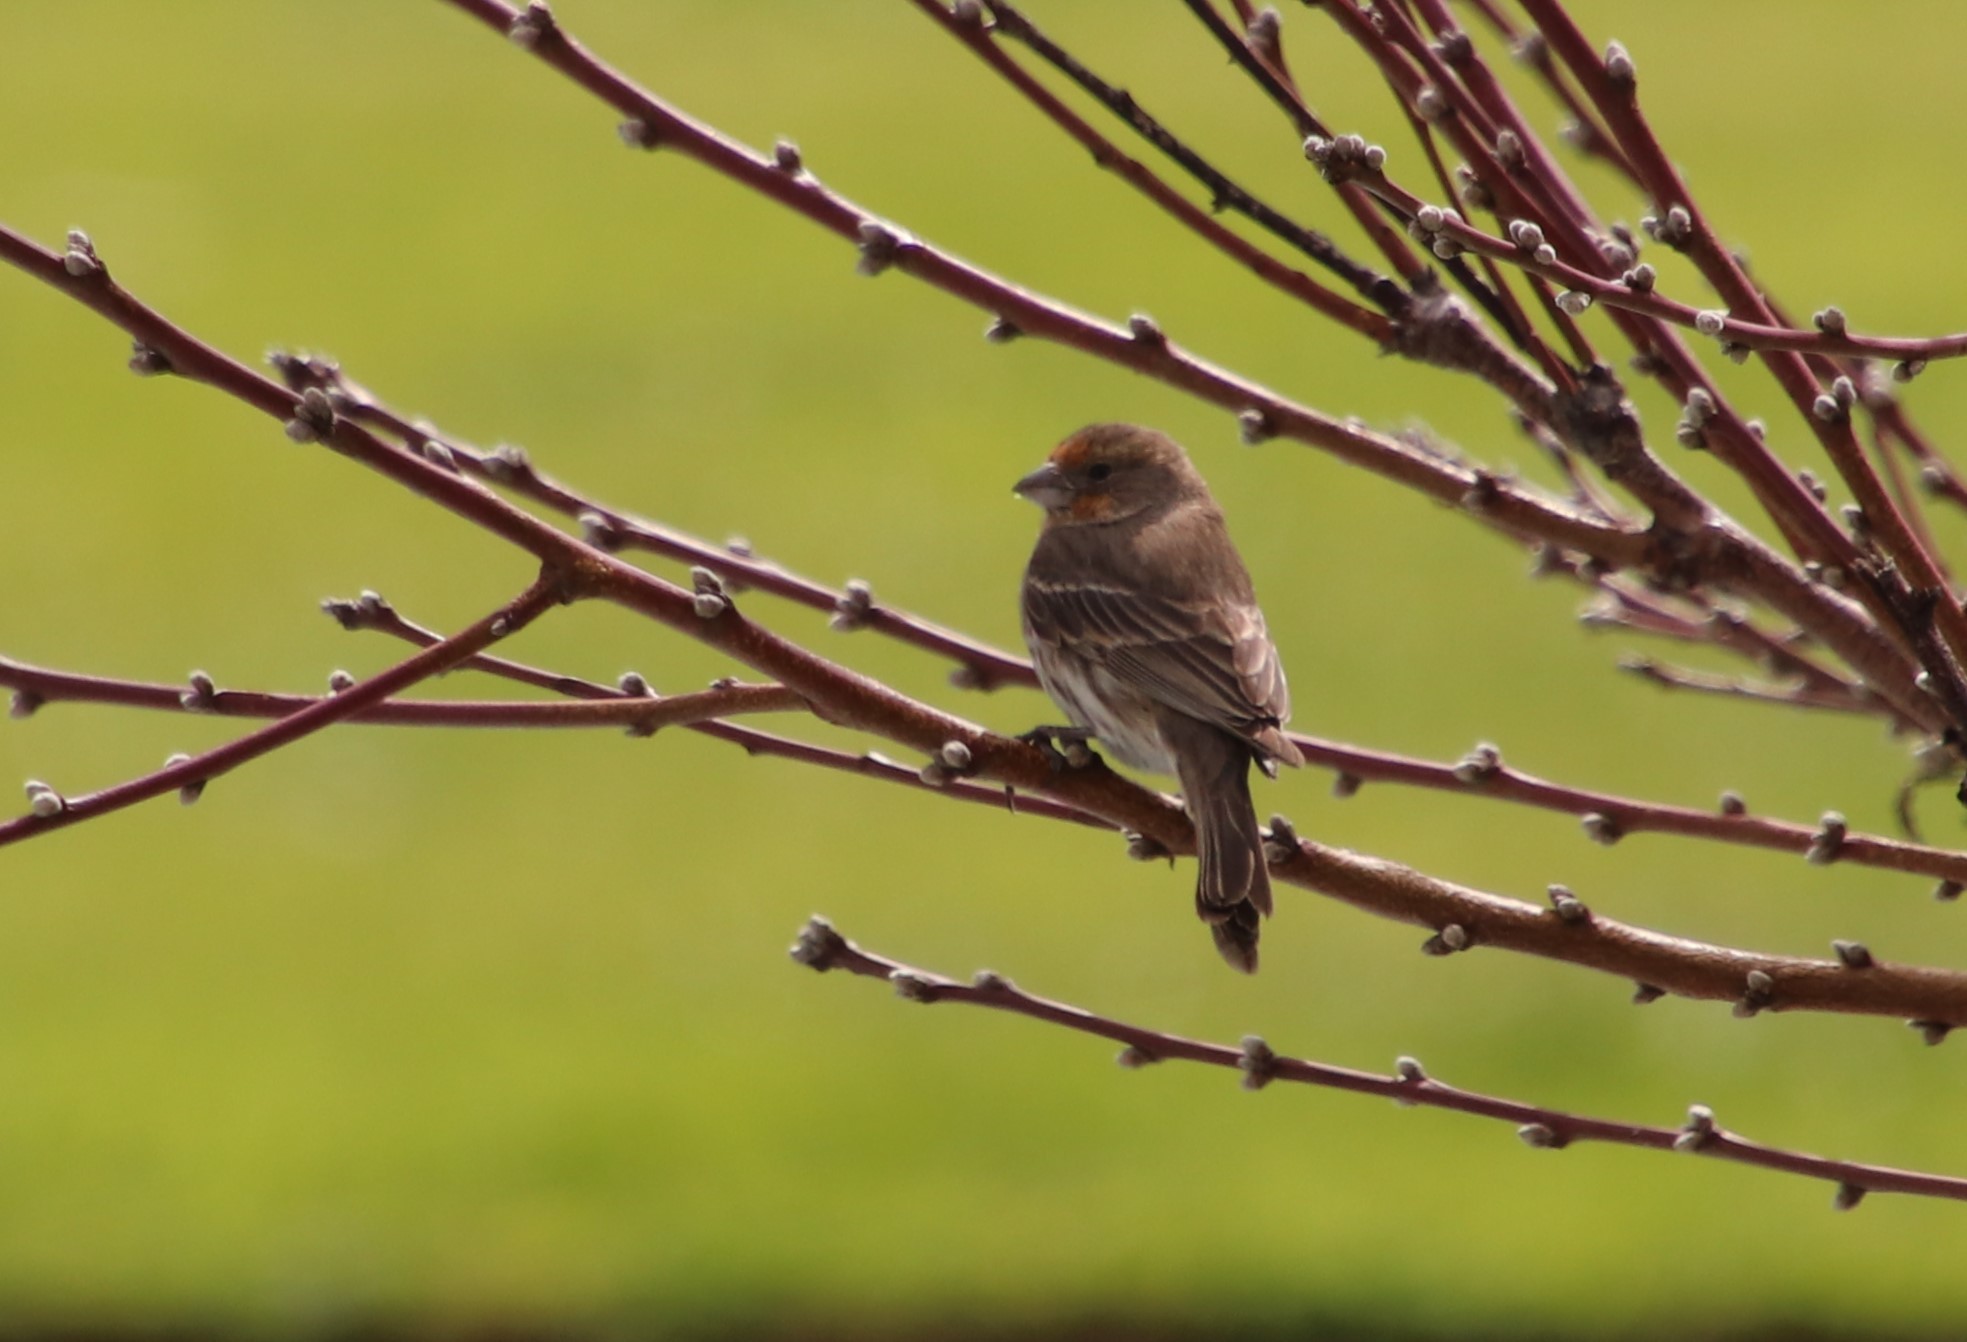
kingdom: Animalia
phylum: Chordata
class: Aves
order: Passeriformes
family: Fringillidae
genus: Haemorhous
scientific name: Haemorhous mexicanus
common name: House finch
